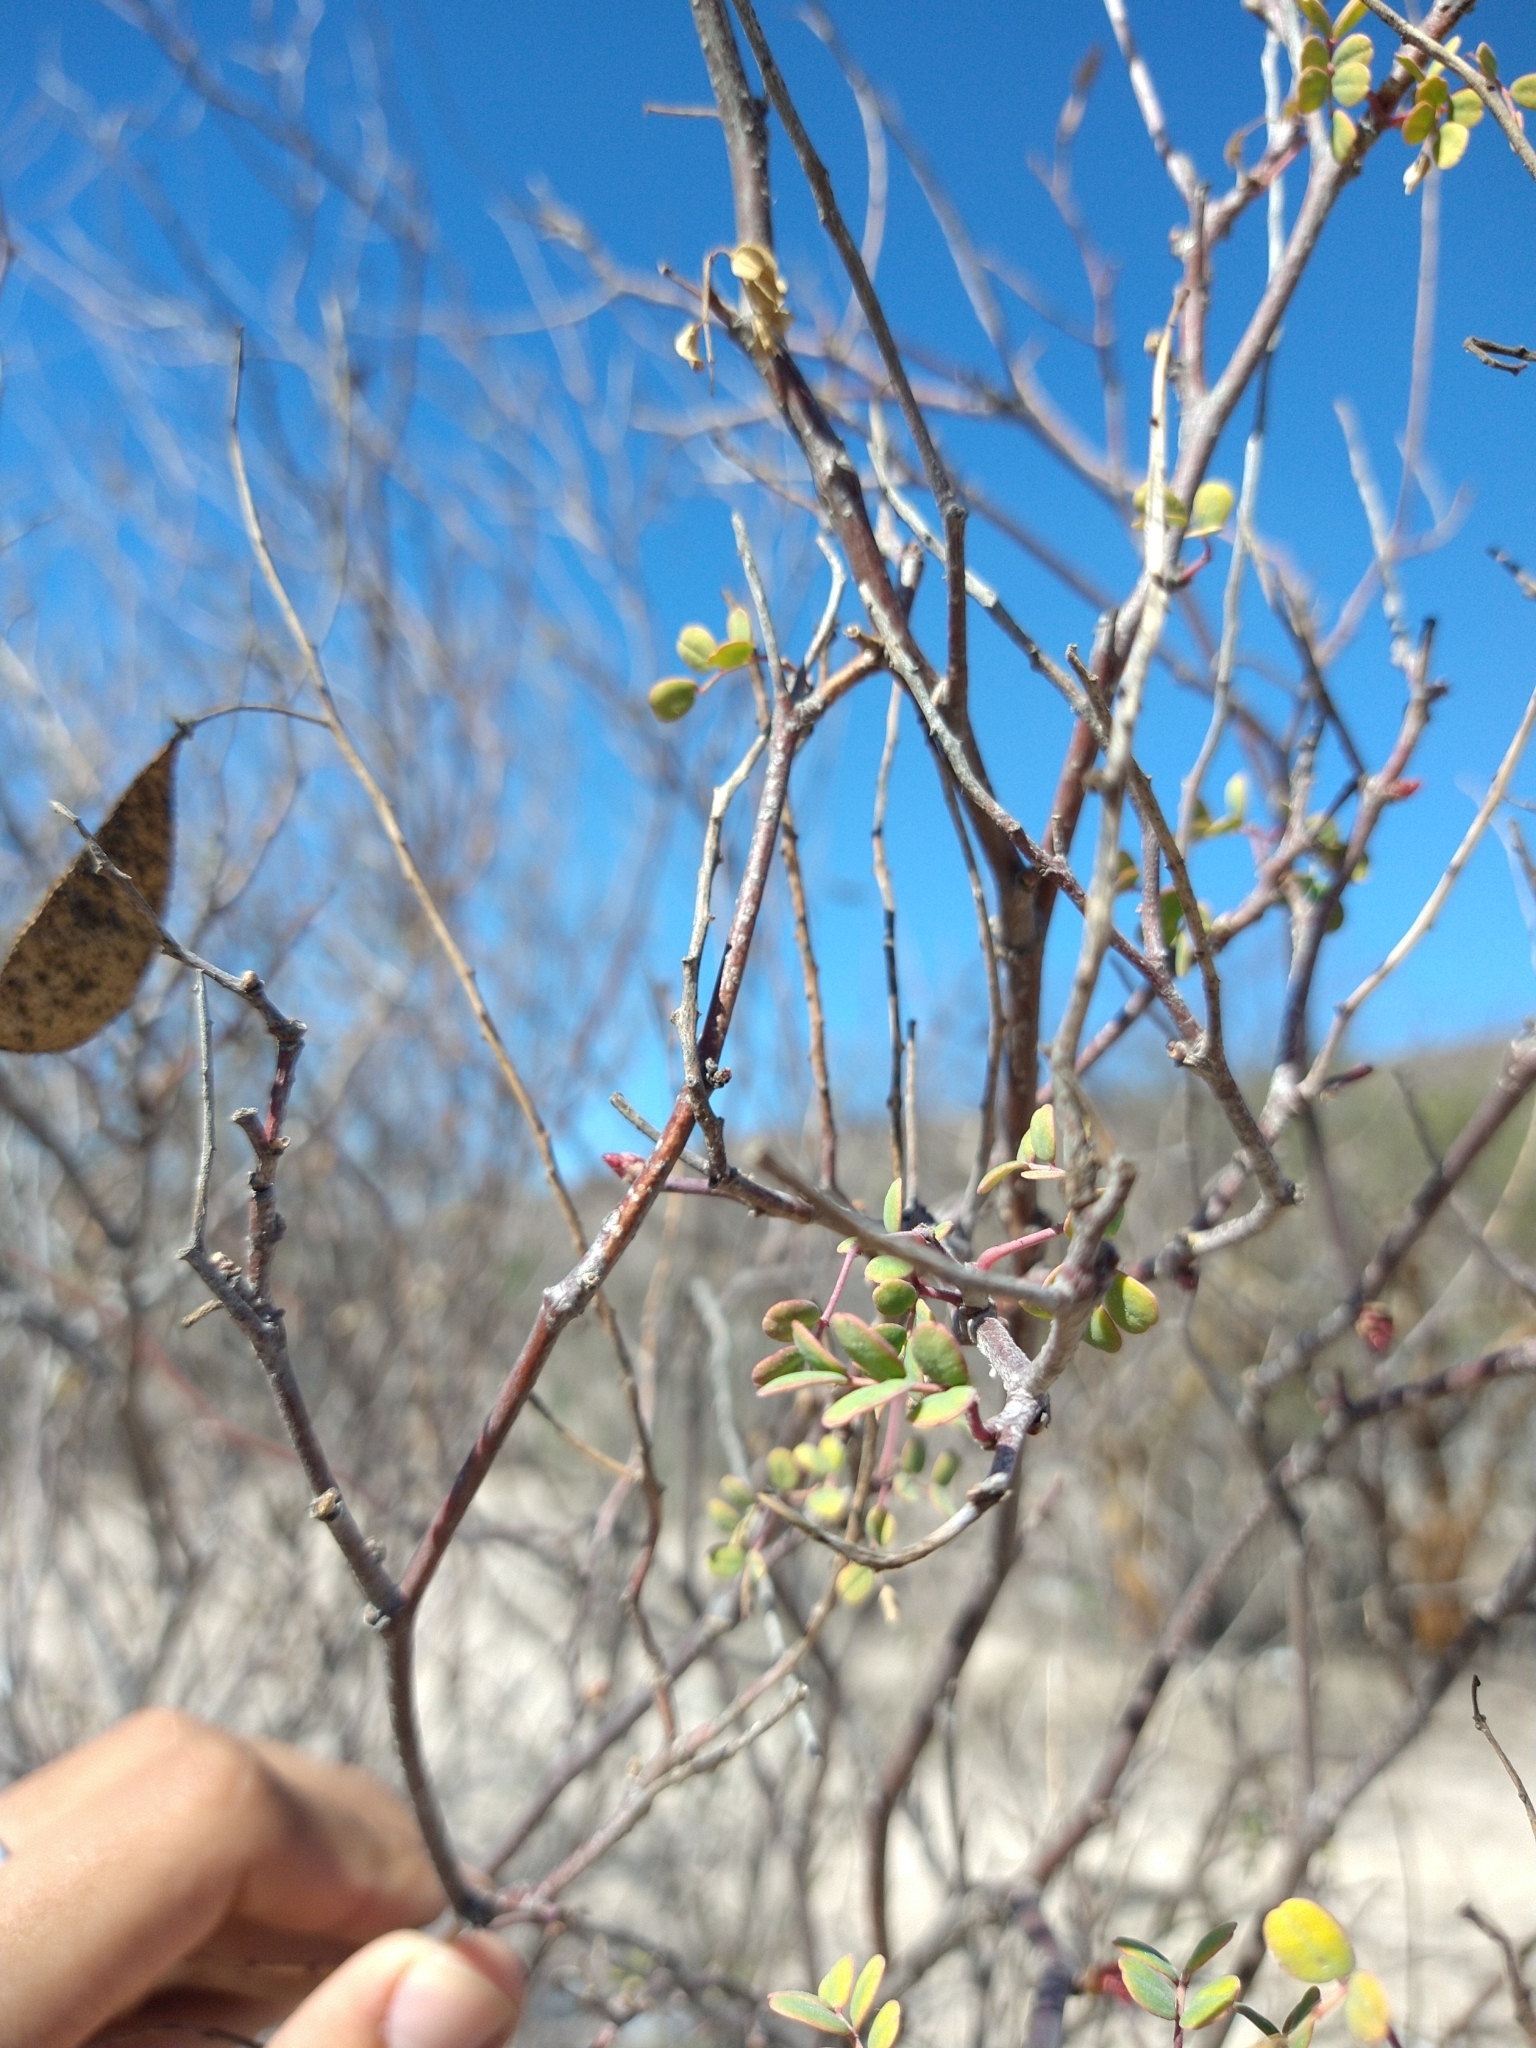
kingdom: Plantae
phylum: Tracheophyta
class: Magnoliopsida
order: Fabales
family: Fabaceae
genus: Erythrostemon
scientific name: Erythrostemon pannosus
